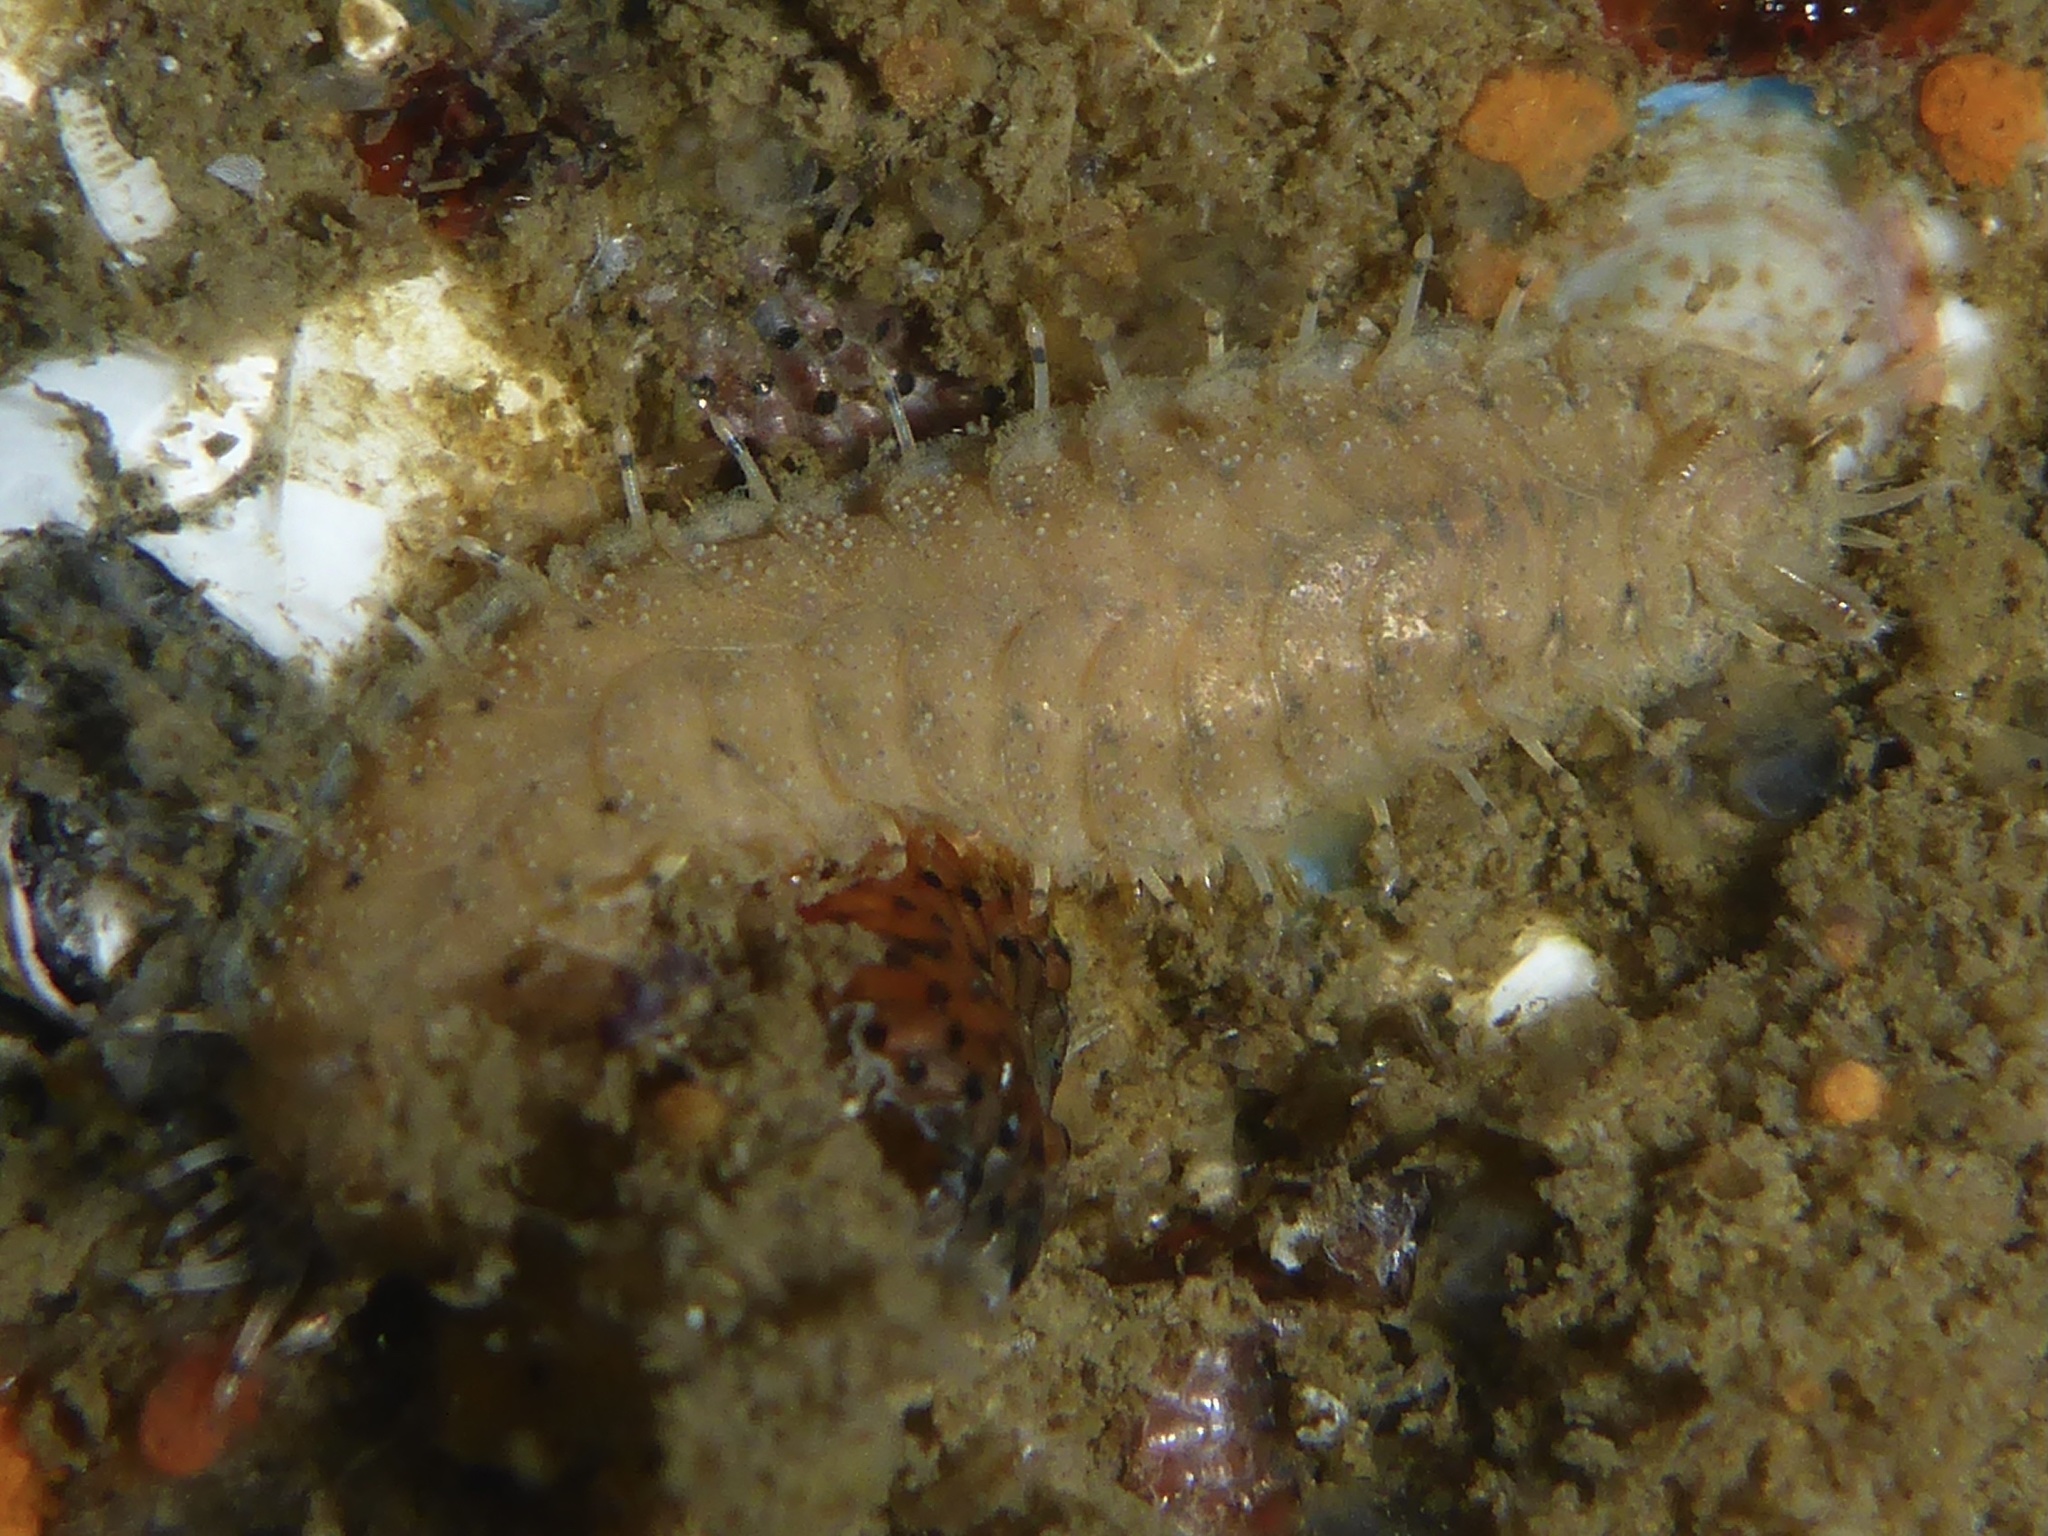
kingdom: Animalia
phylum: Annelida
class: Polychaeta
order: Phyllodocida
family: Polynoidae
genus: Halosydna
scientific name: Halosydna brevisetosa
